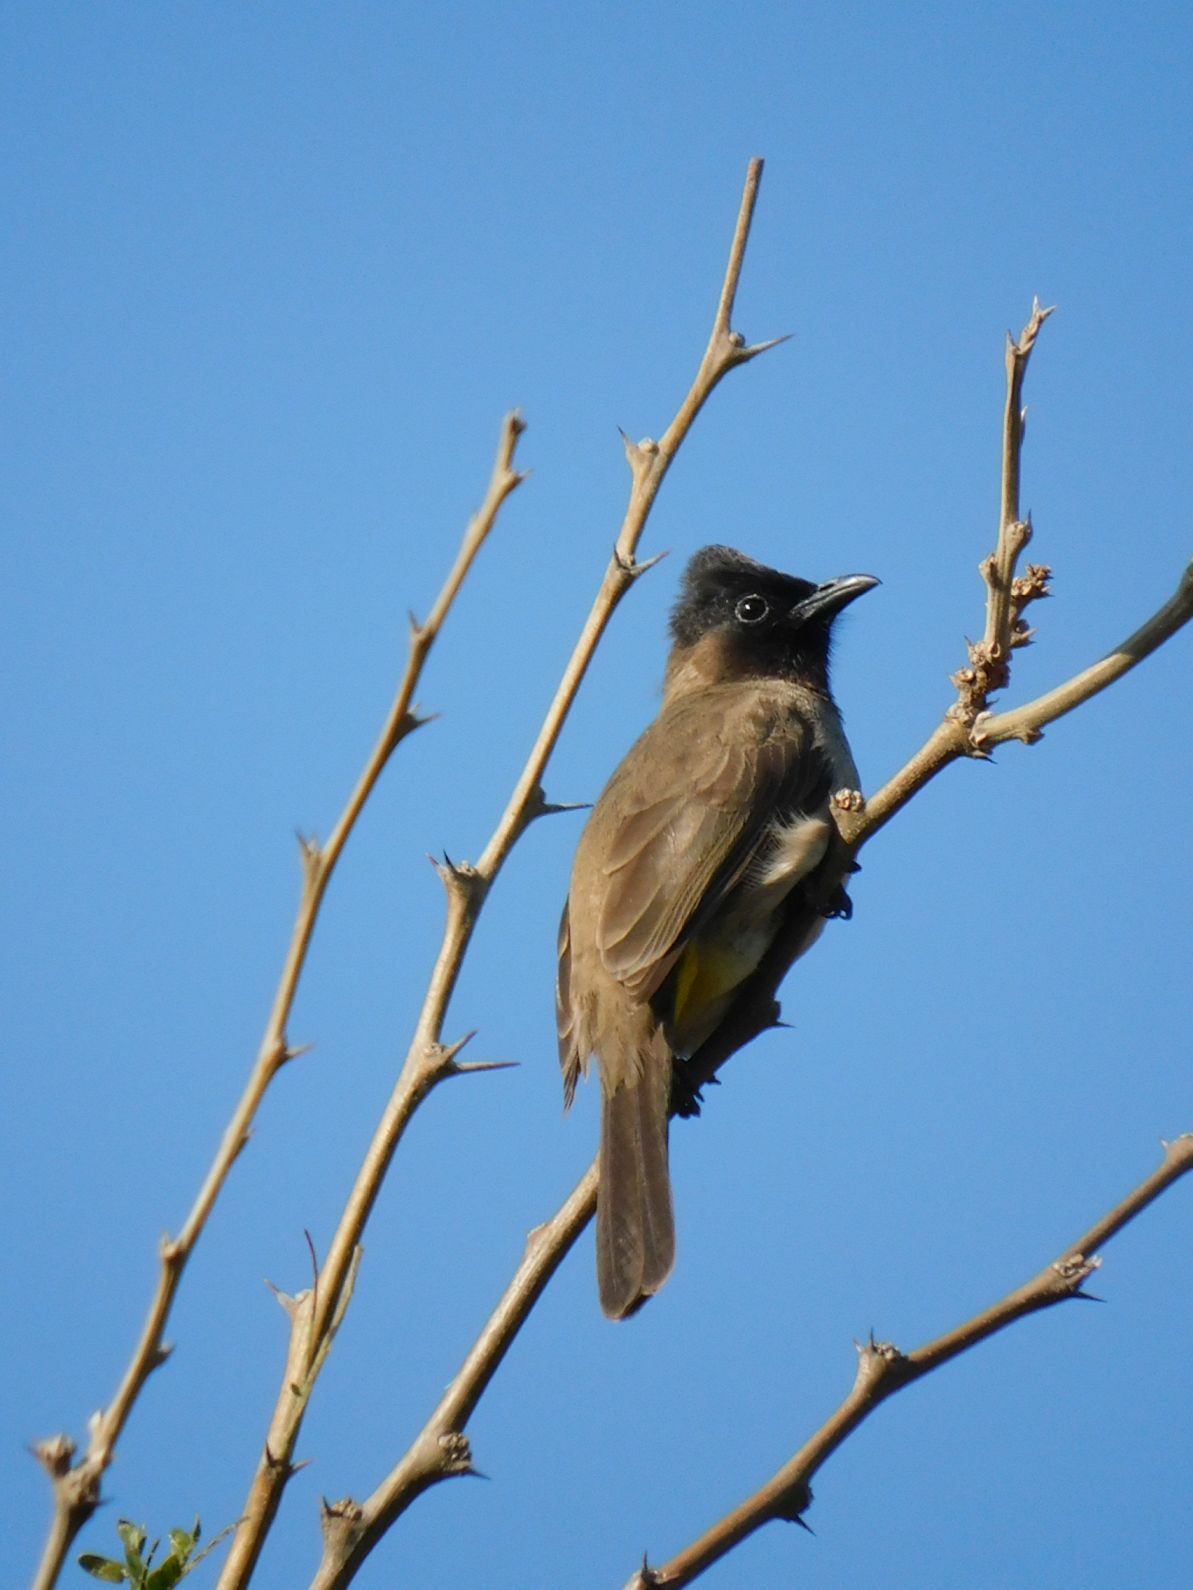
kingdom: Animalia
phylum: Chordata
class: Aves
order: Passeriformes
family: Pycnonotidae
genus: Pycnonotus
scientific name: Pycnonotus barbatus
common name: Common bulbul
